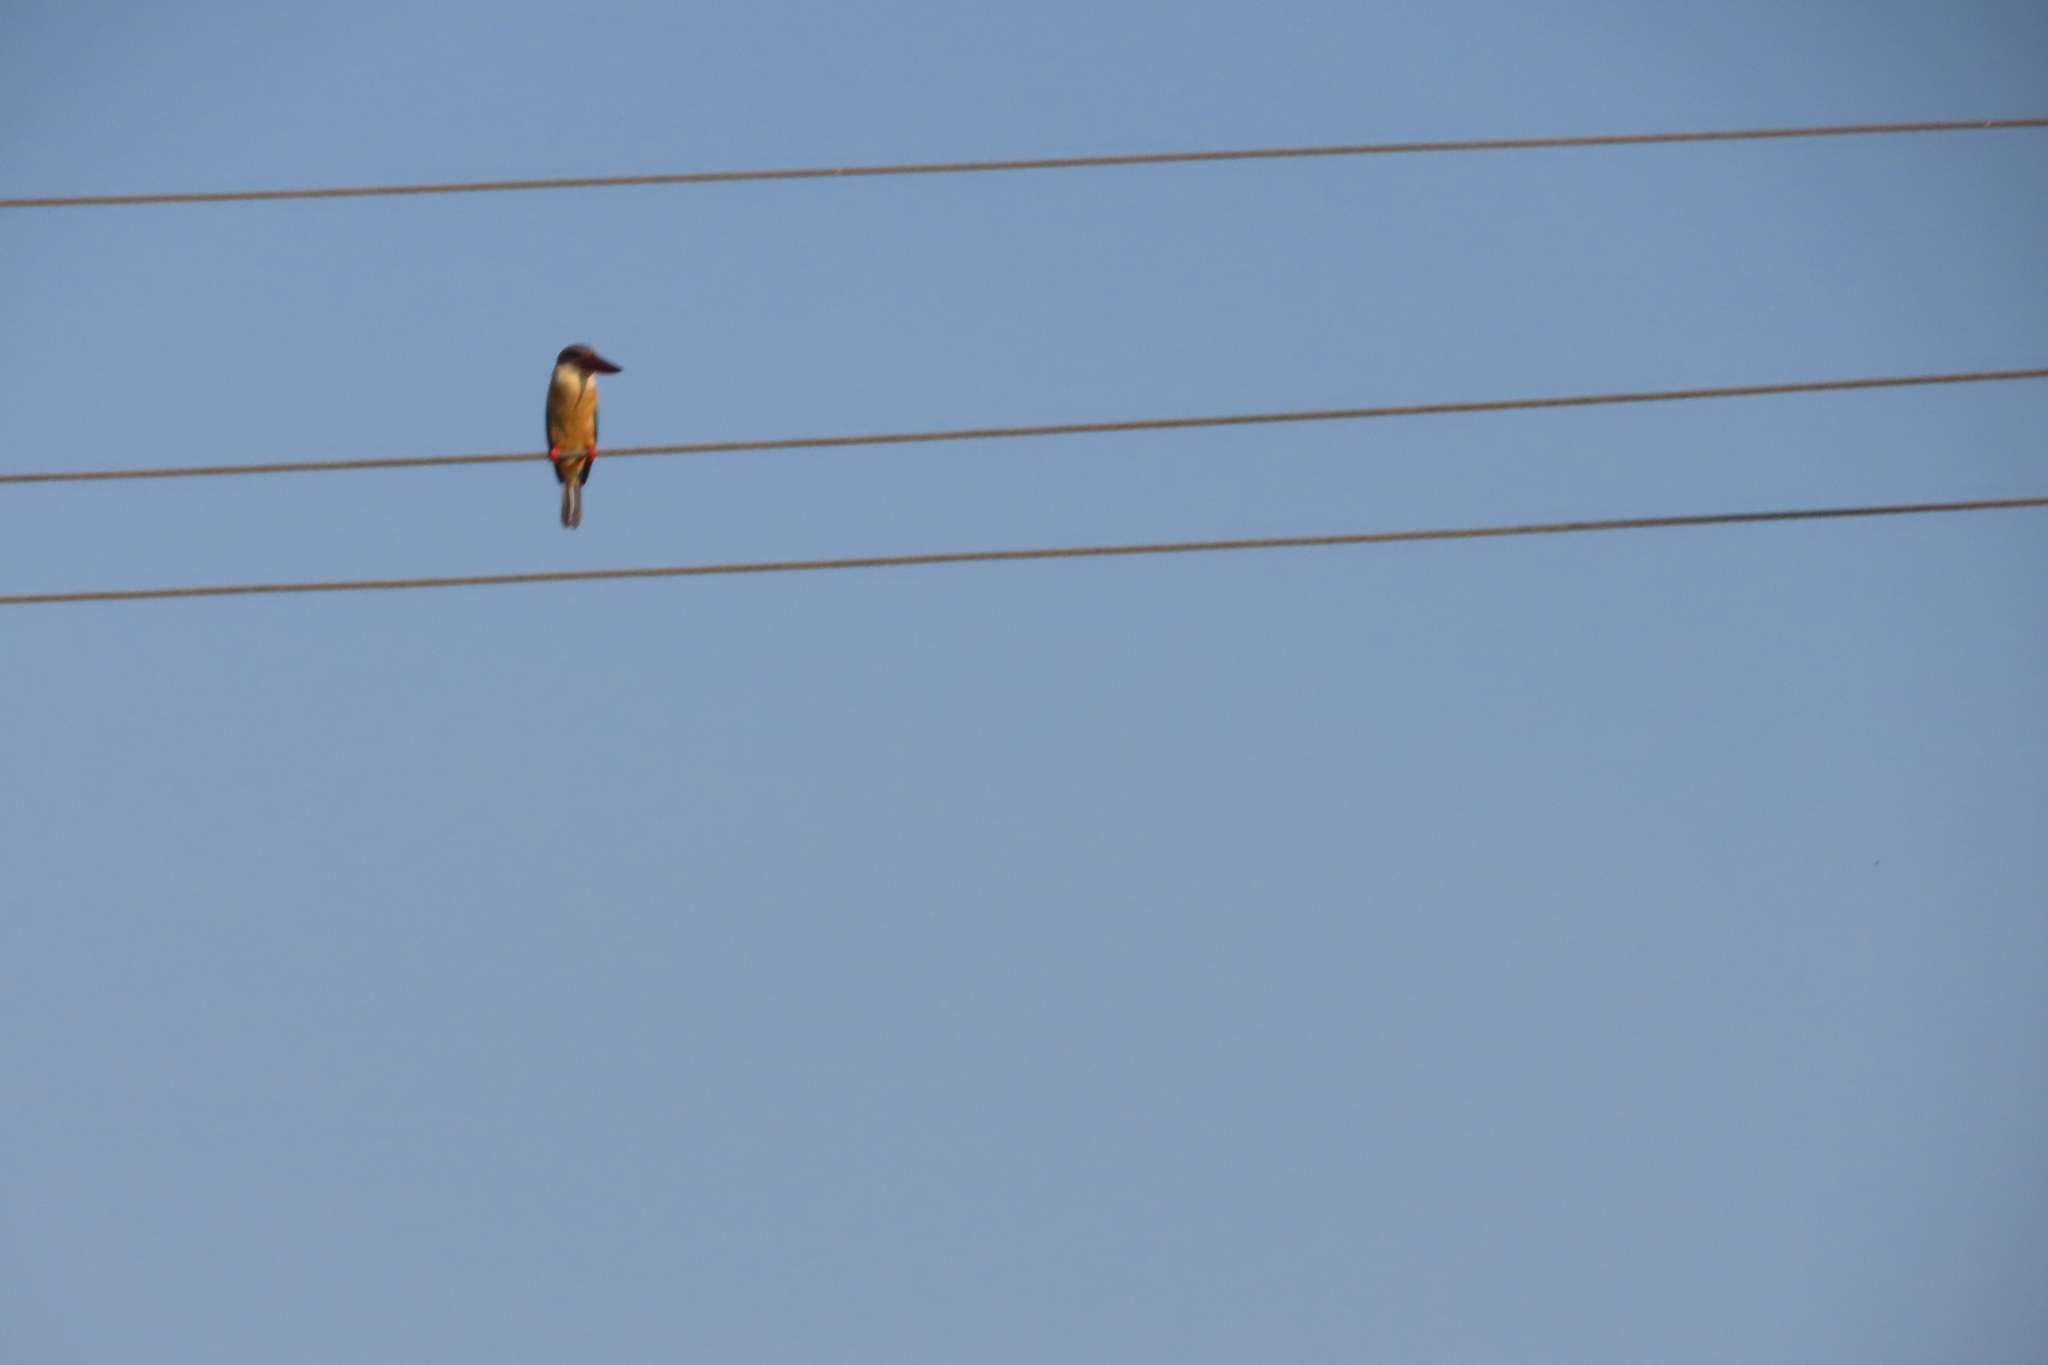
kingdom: Animalia
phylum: Chordata
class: Aves
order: Coraciiformes
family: Alcedinidae
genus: Pelargopsis
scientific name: Pelargopsis capensis
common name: Stork-billed kingfisher
